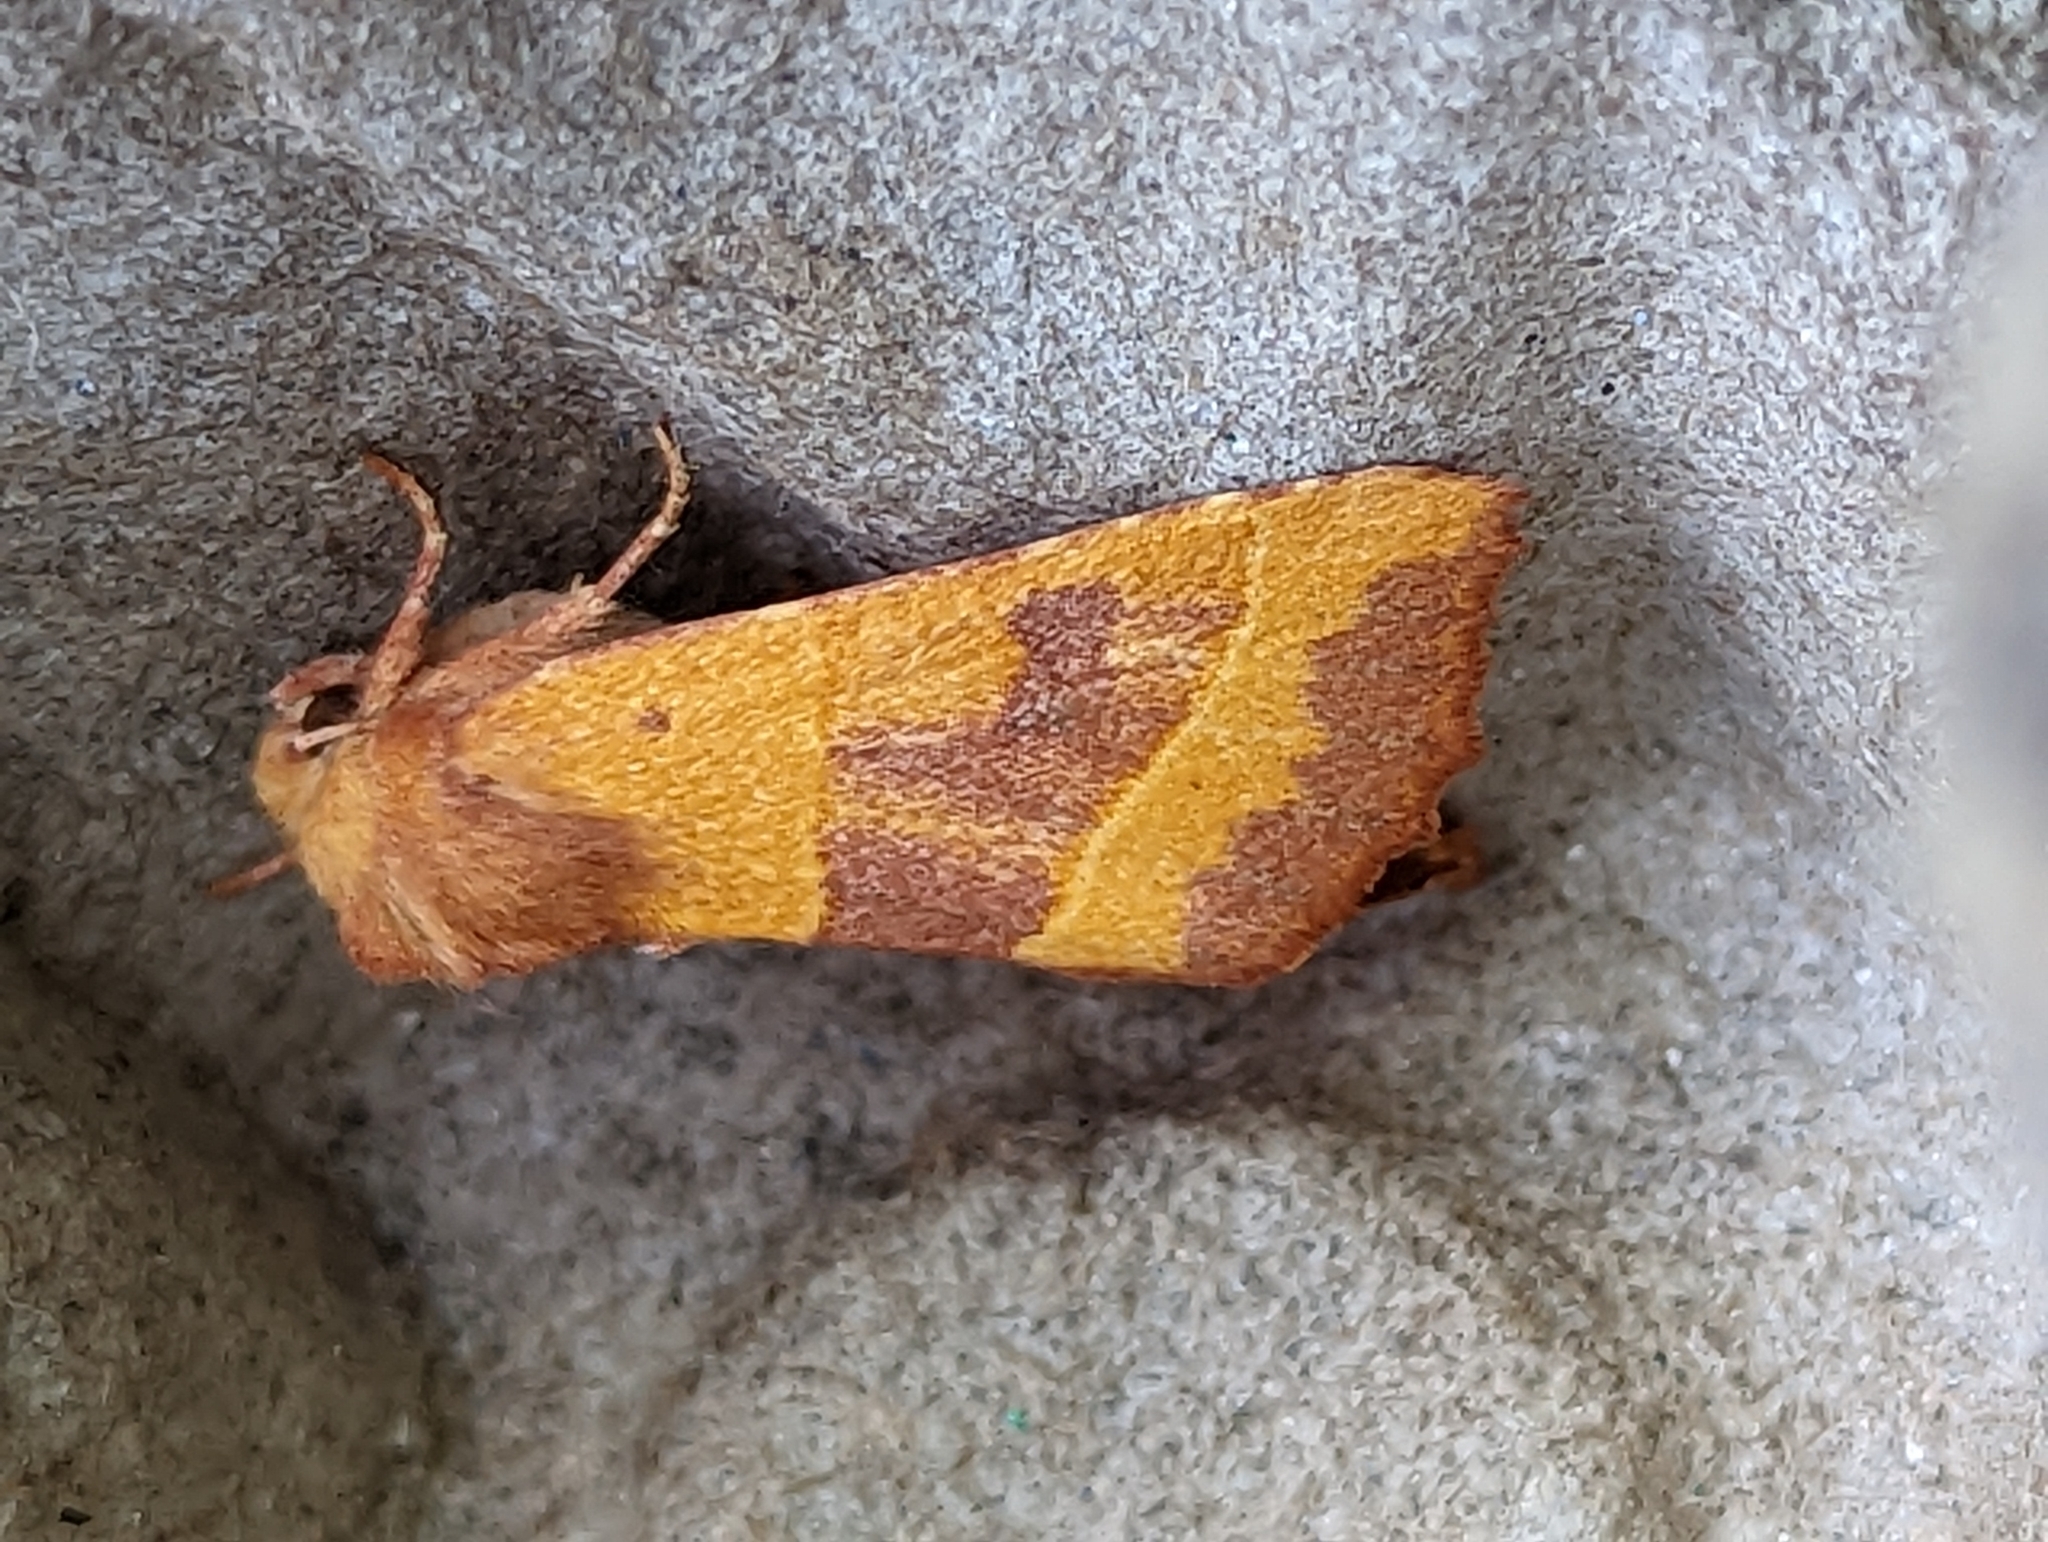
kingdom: Animalia
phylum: Arthropoda
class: Insecta
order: Lepidoptera
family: Noctuidae
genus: Atethmia
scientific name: Atethmia centrago
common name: Centre-barred sallow
